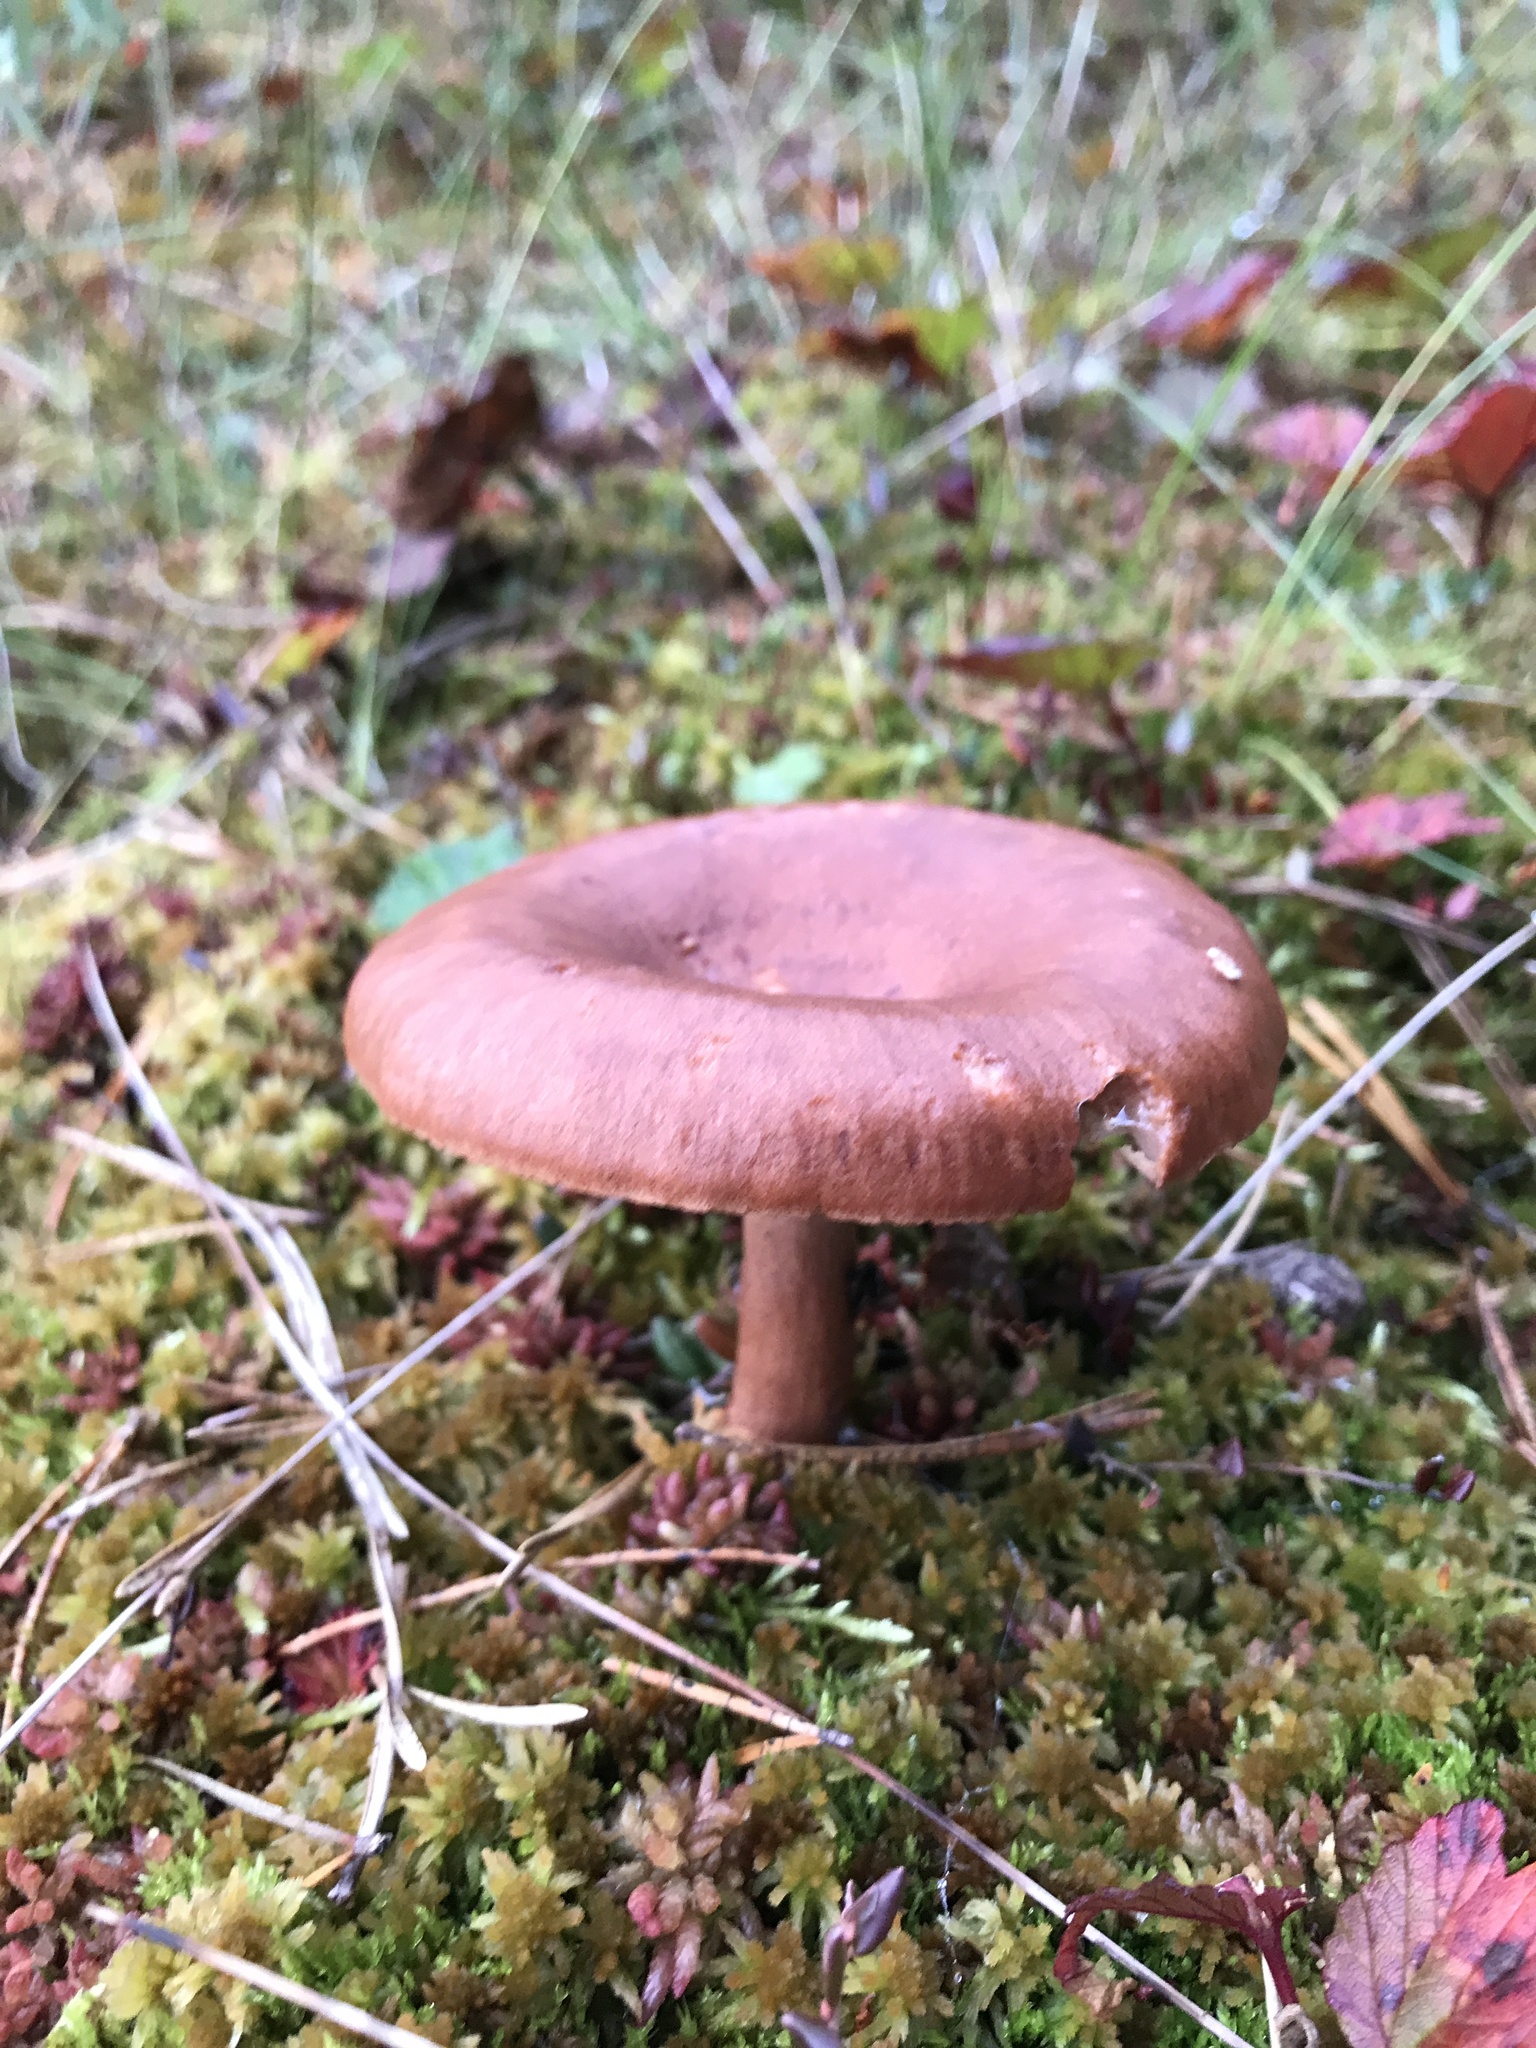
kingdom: Fungi
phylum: Basidiomycota
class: Agaricomycetes
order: Russulales
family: Russulaceae
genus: Lactarius
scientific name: Lactarius rufus
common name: Rufous milk-cap
